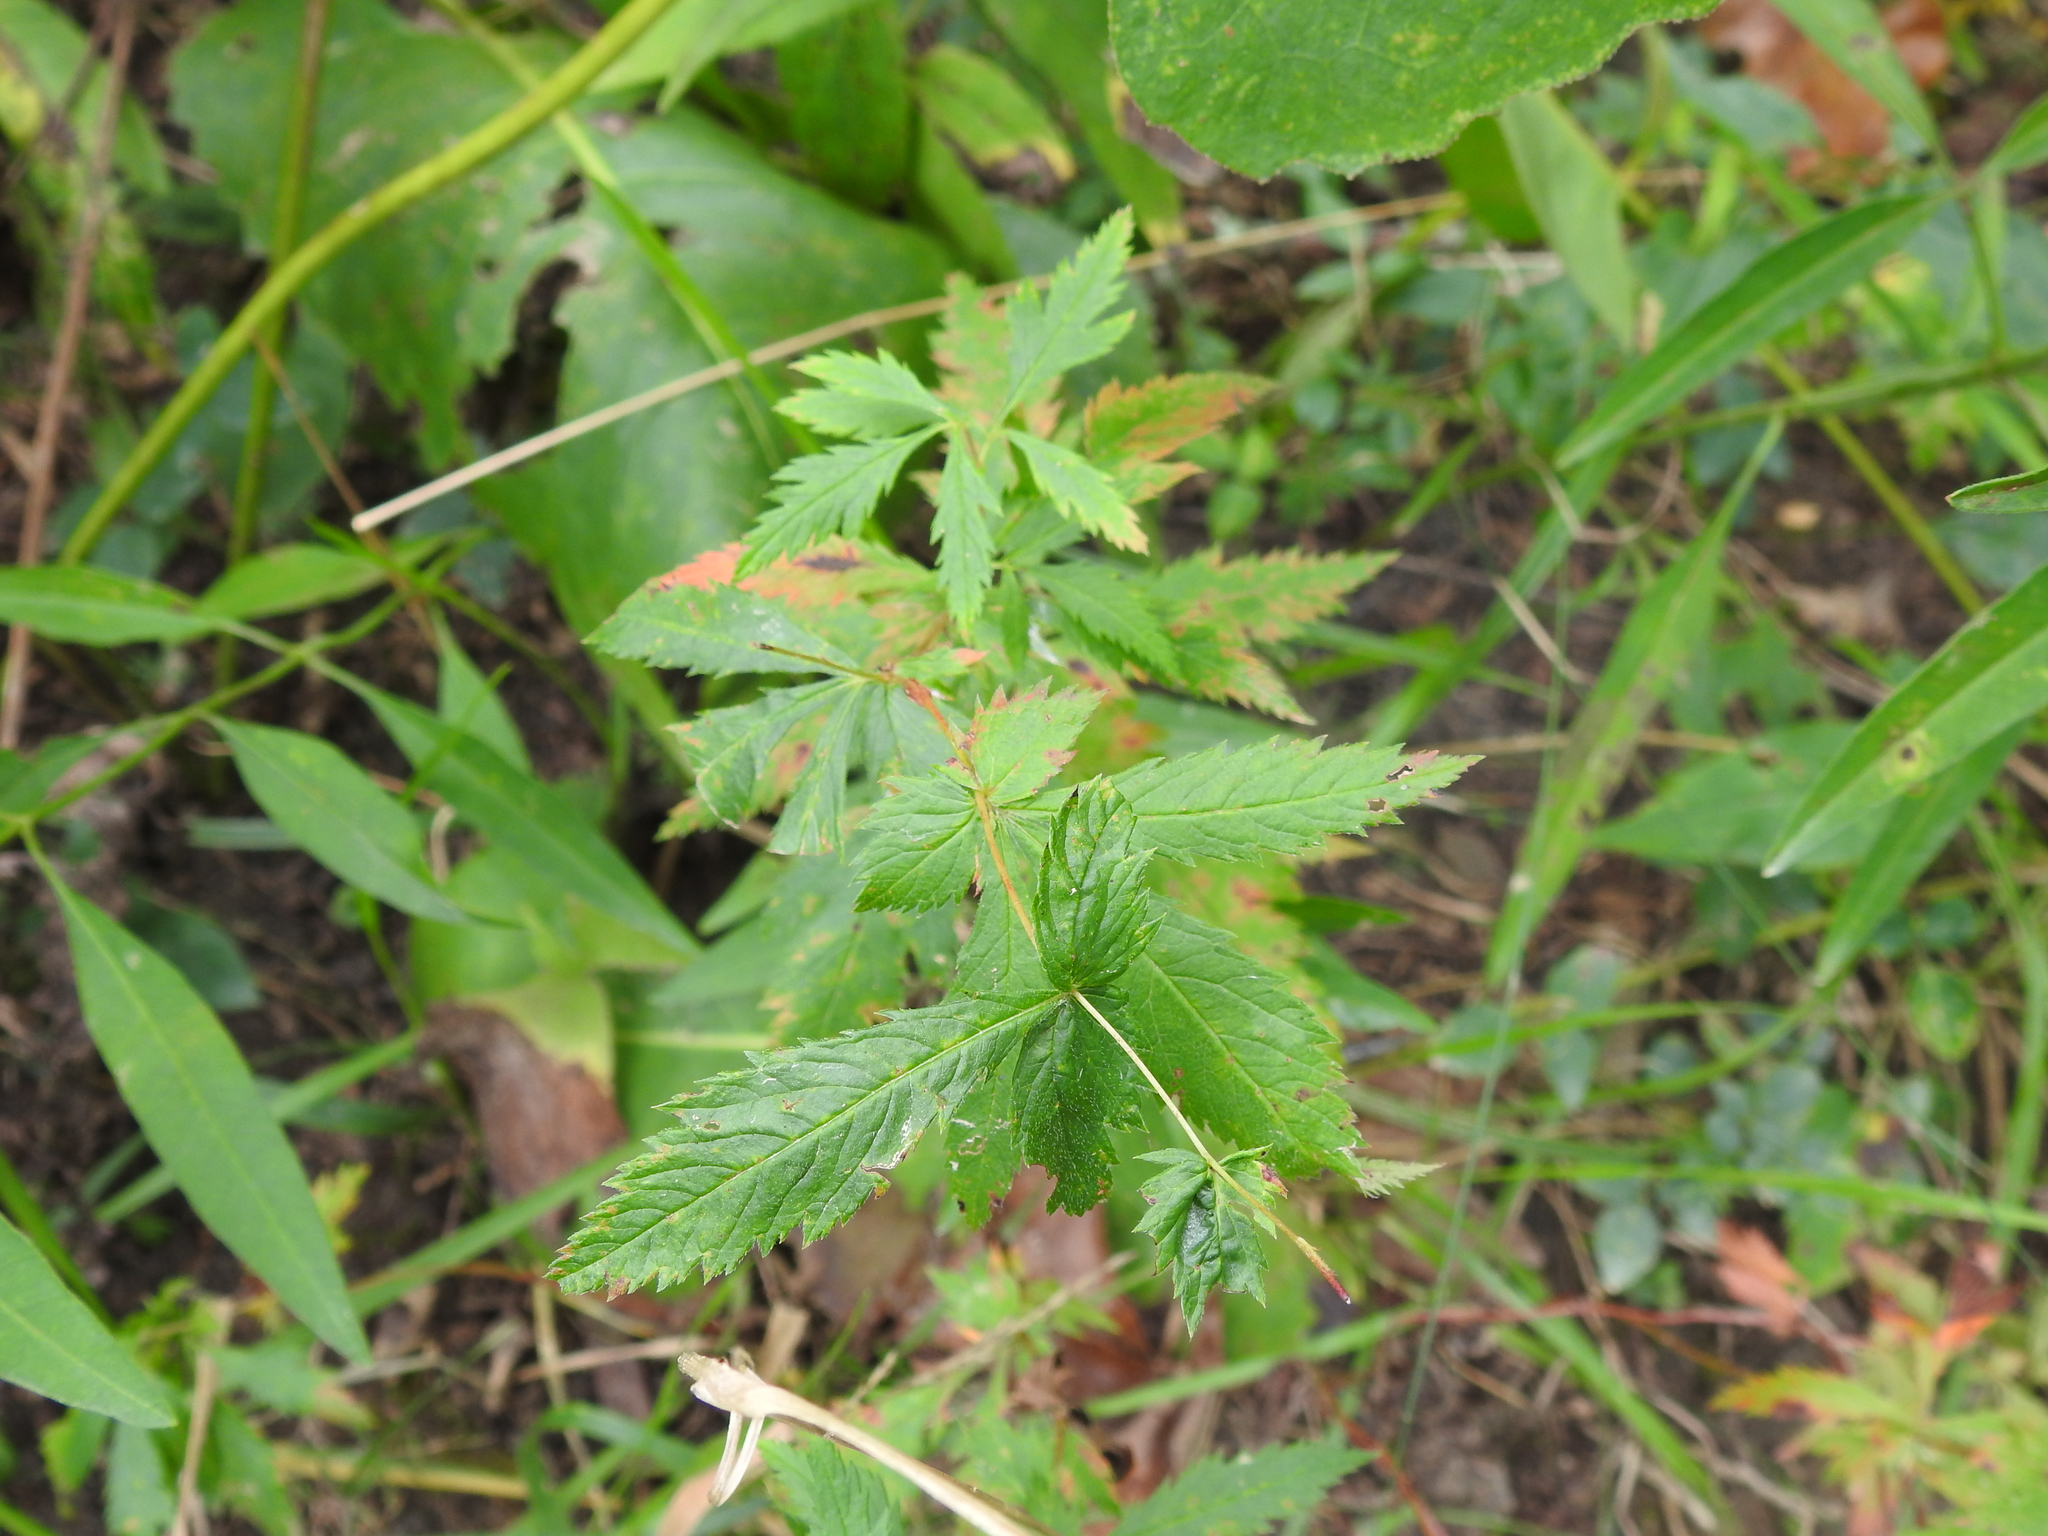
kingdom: Plantae
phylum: Tracheophyta
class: Magnoliopsida
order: Rosales
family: Rosaceae
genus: Gillenia
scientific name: Gillenia stipulata
